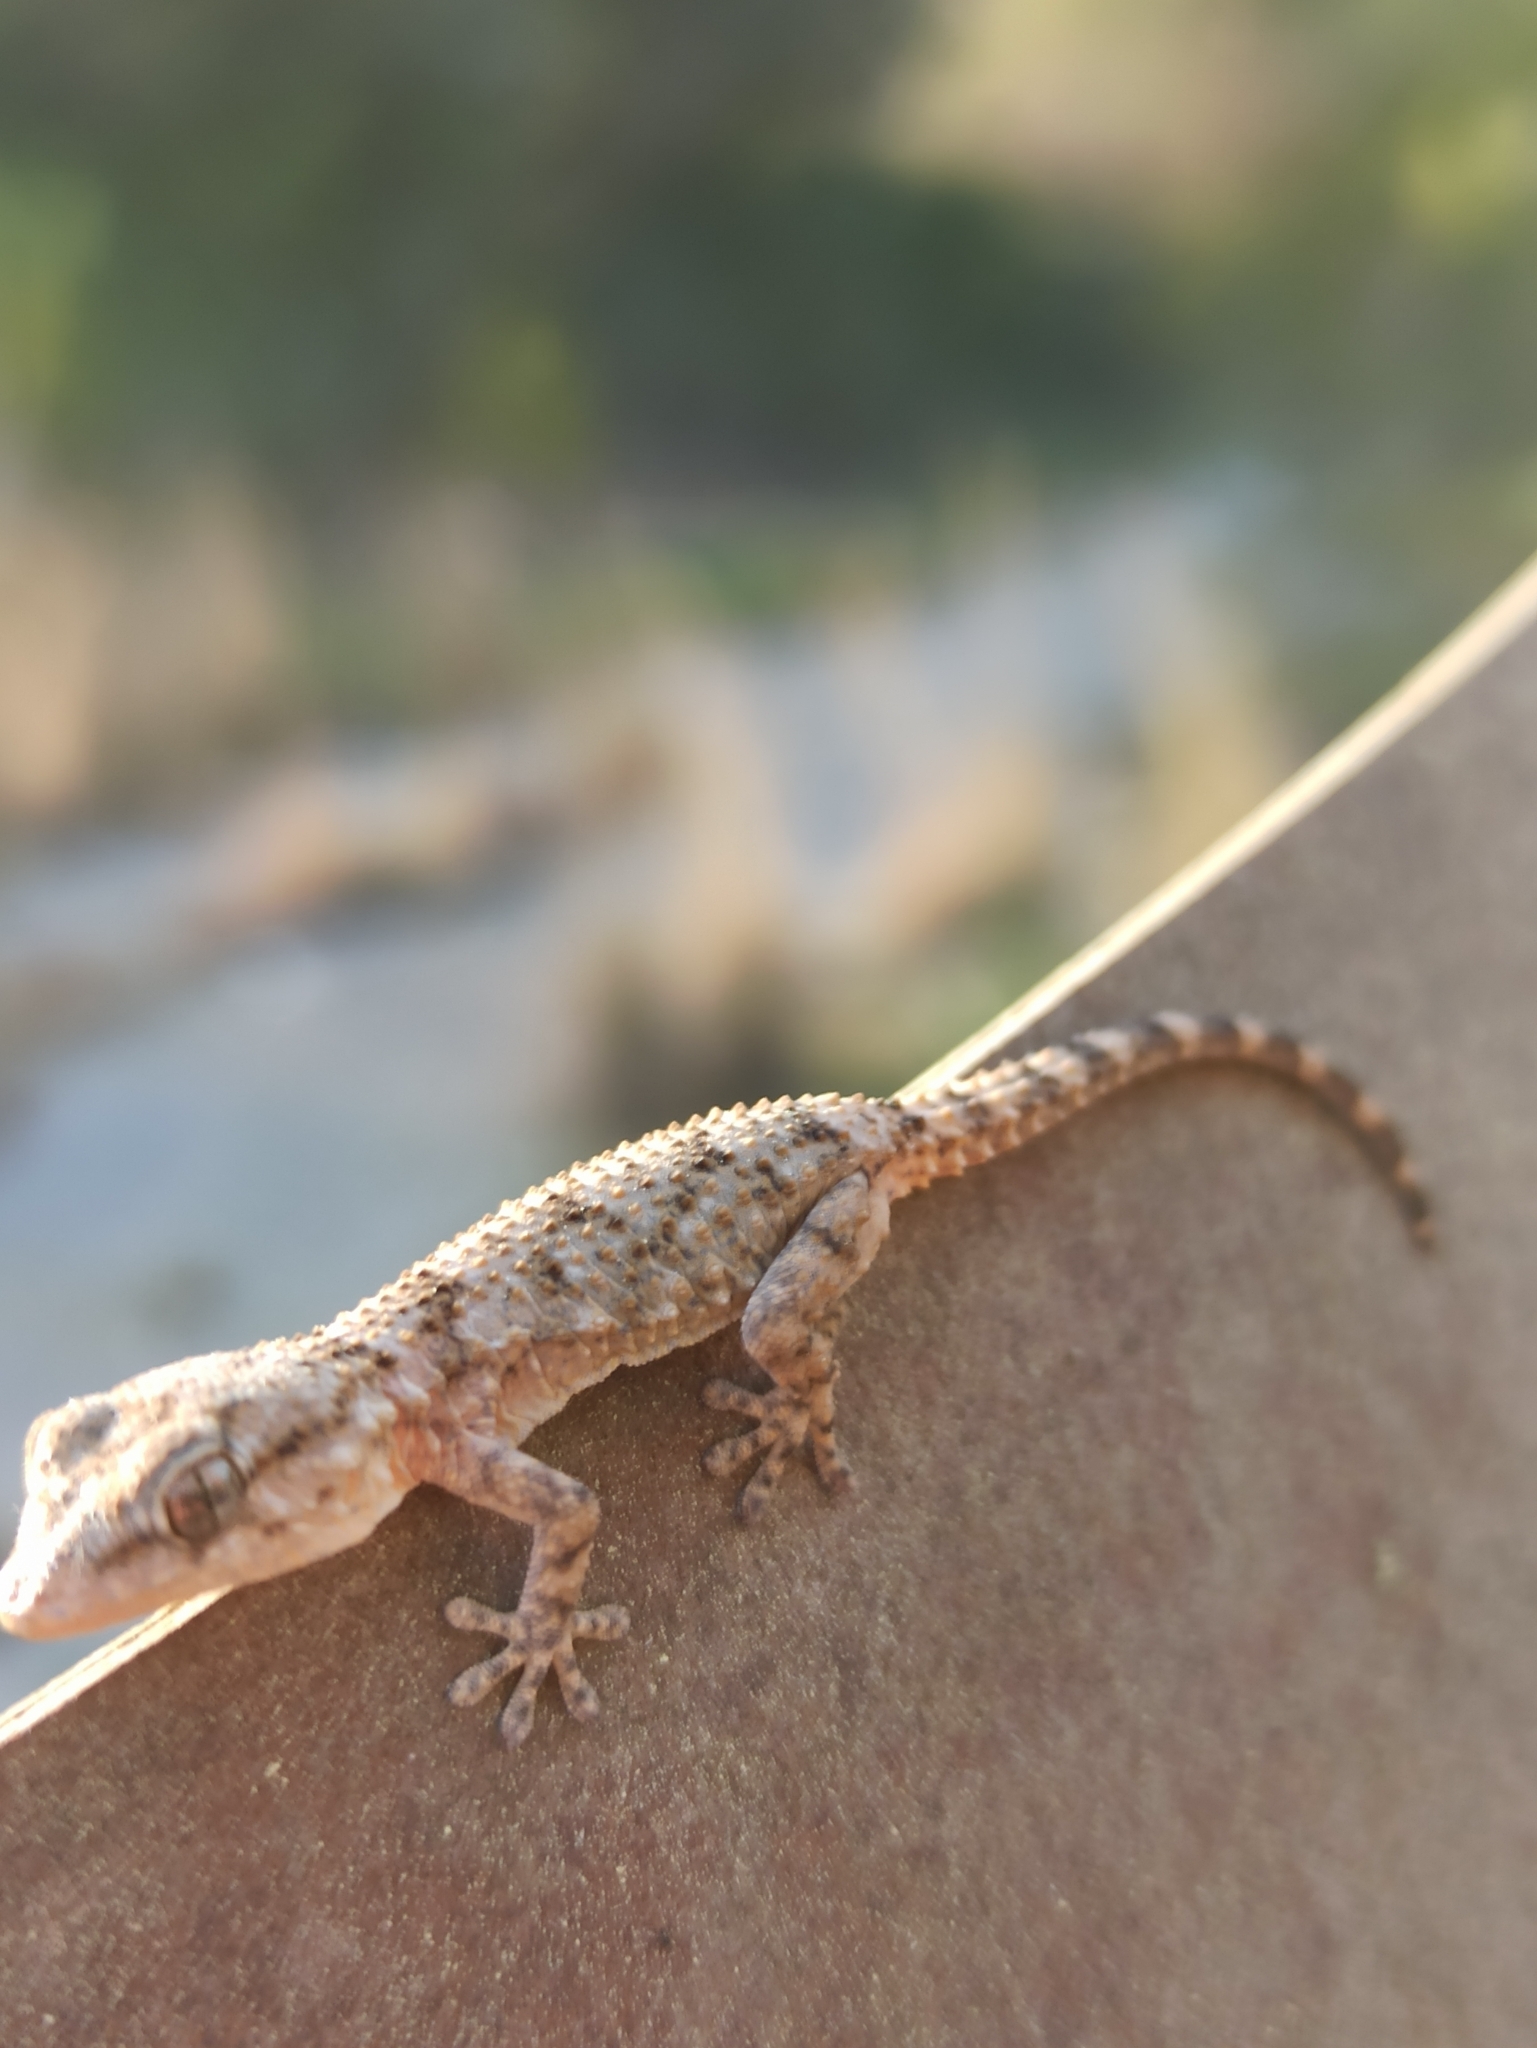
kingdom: Animalia
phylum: Chordata
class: Squamata
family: Phyllodactylidae
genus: Tarentola
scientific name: Tarentola mauritanica
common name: Moorish gecko
